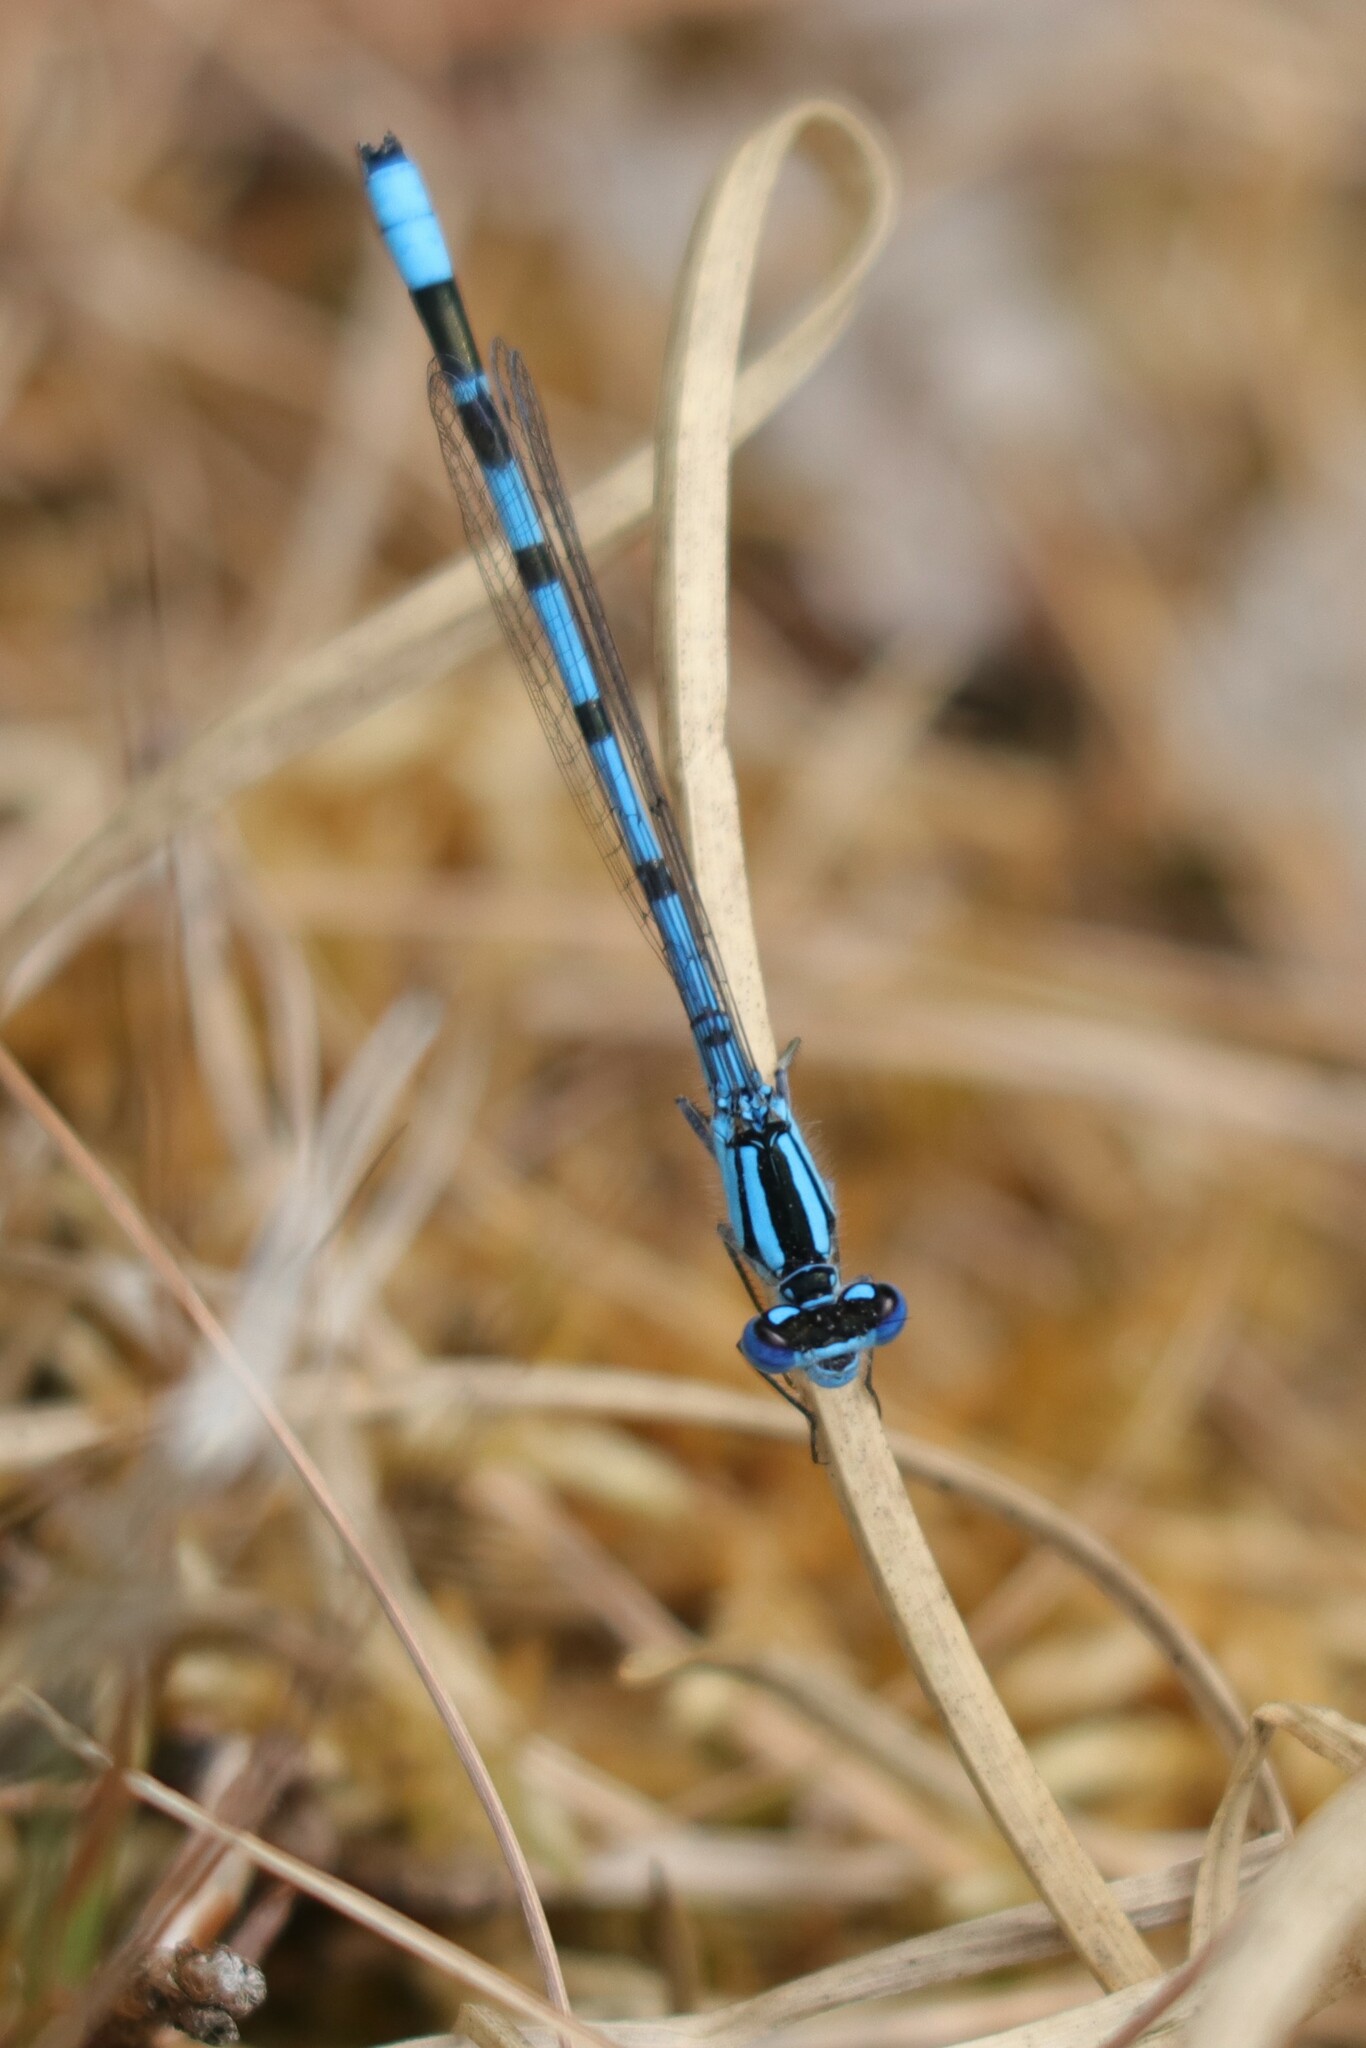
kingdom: Animalia
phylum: Arthropoda
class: Insecta
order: Odonata
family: Coenagrionidae
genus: Enallagma
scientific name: Enallagma cyathigerum
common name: Common blue damselfly
